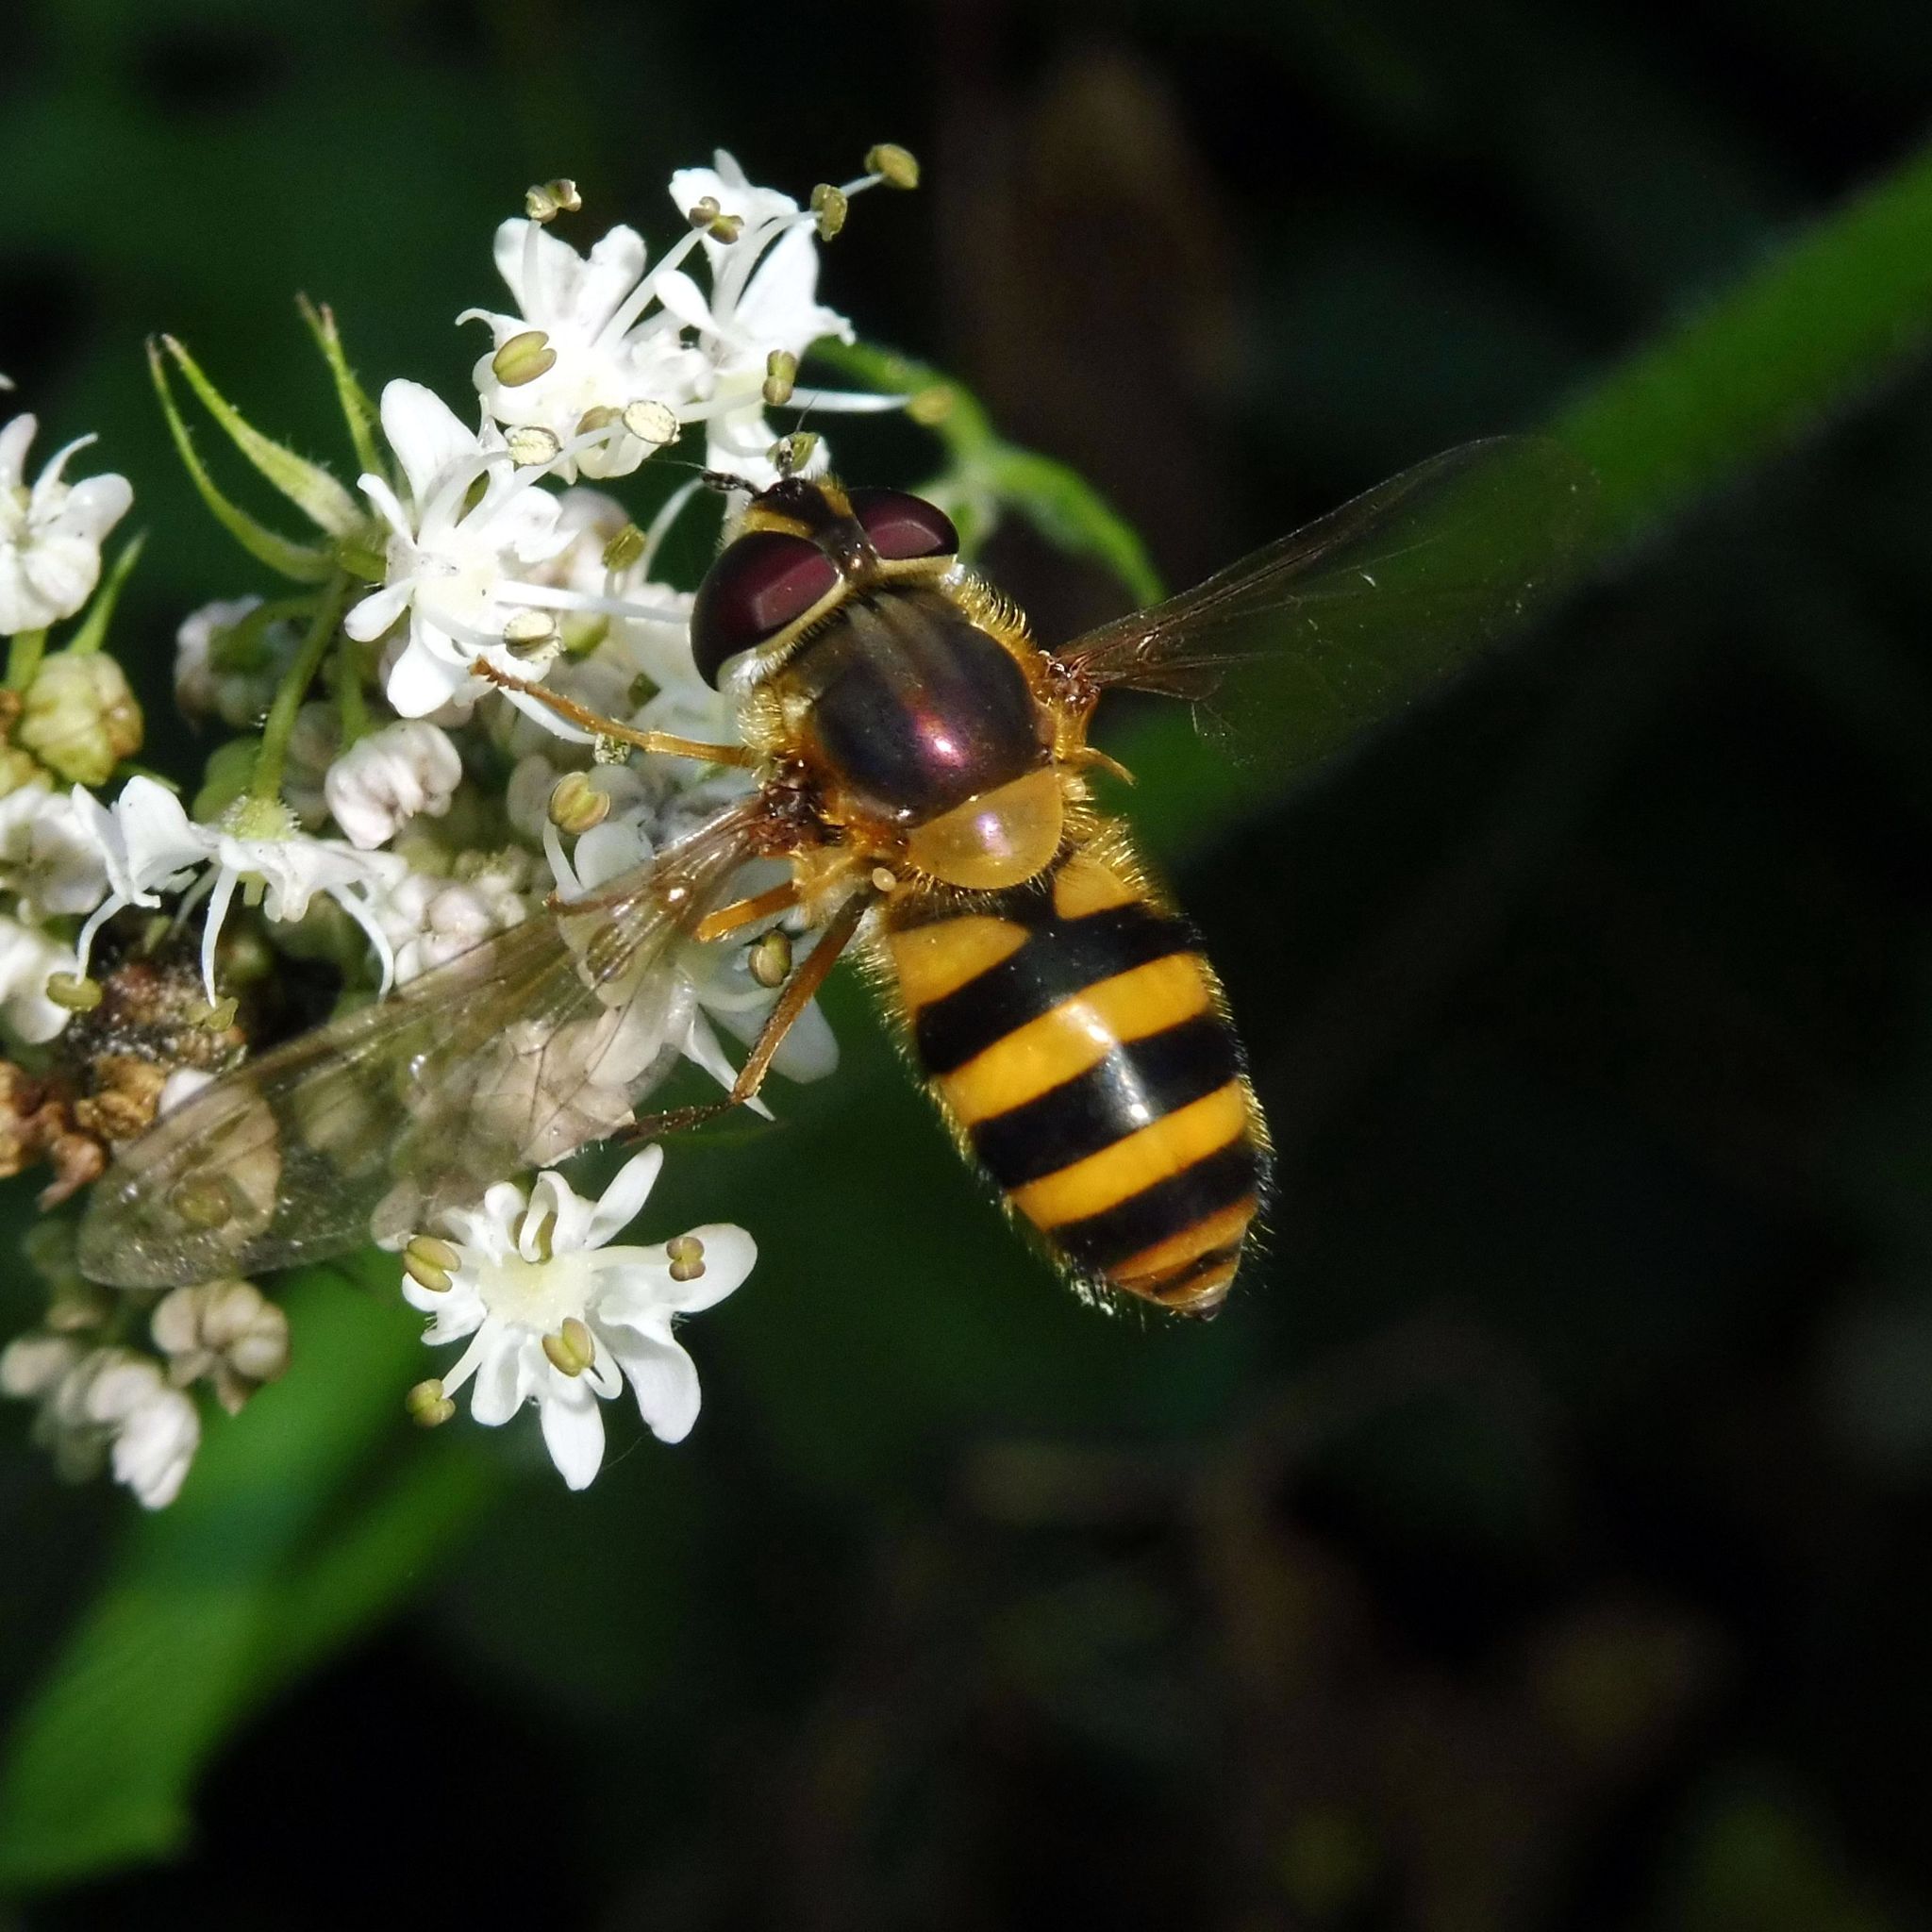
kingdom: Animalia
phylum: Arthropoda
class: Insecta
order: Diptera
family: Syrphidae
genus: Epistrophe
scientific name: Epistrophe grossulariae
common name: Black-horned smoothtail
